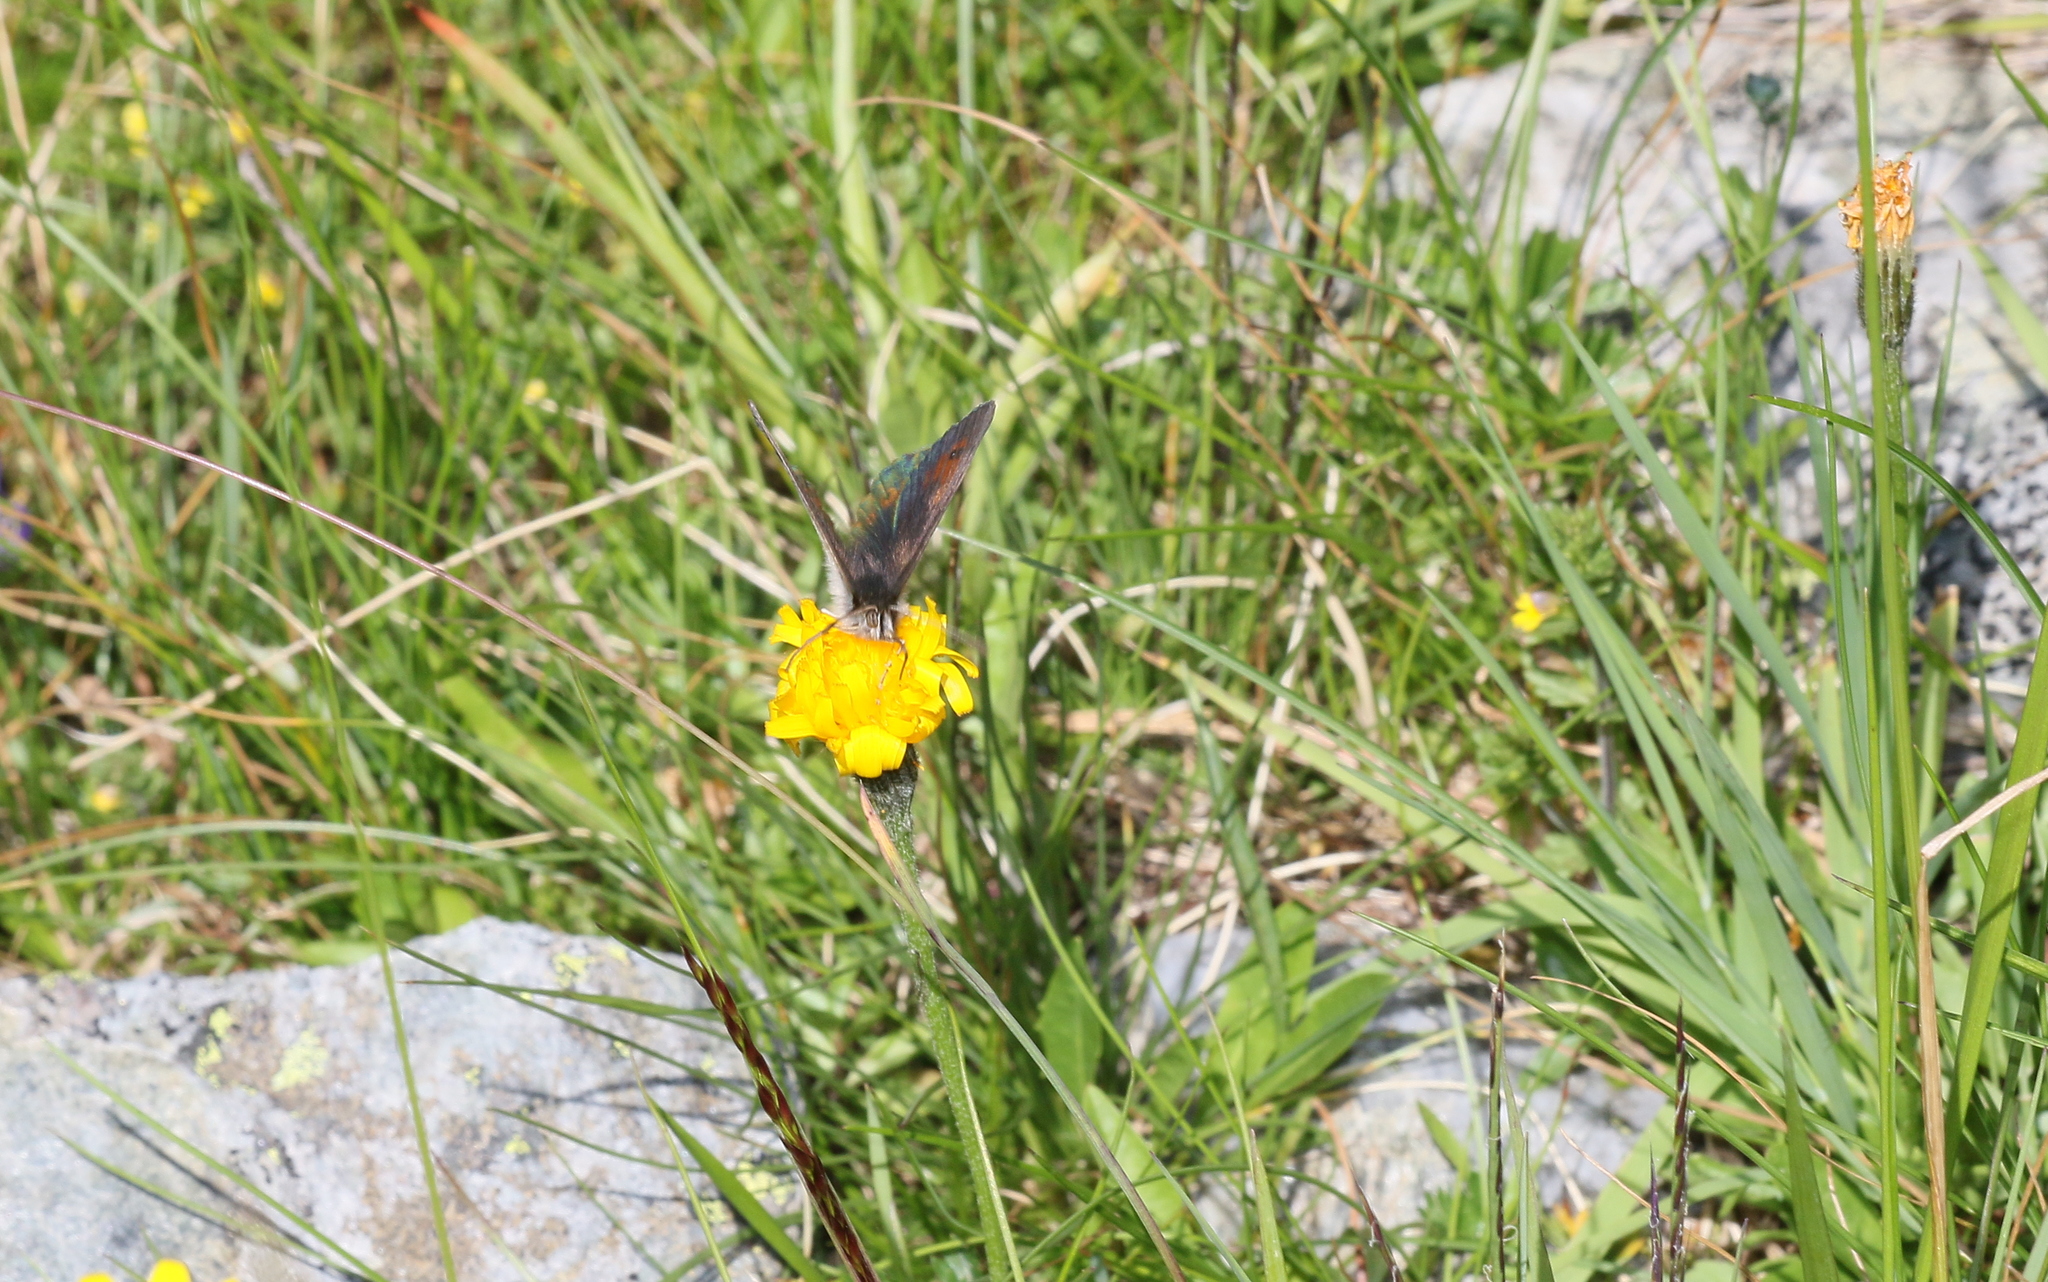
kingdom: Animalia
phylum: Arthropoda
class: Insecta
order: Lepidoptera
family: Nymphalidae
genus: Erebia
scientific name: Erebia cassioides
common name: Common brassy ringlet
